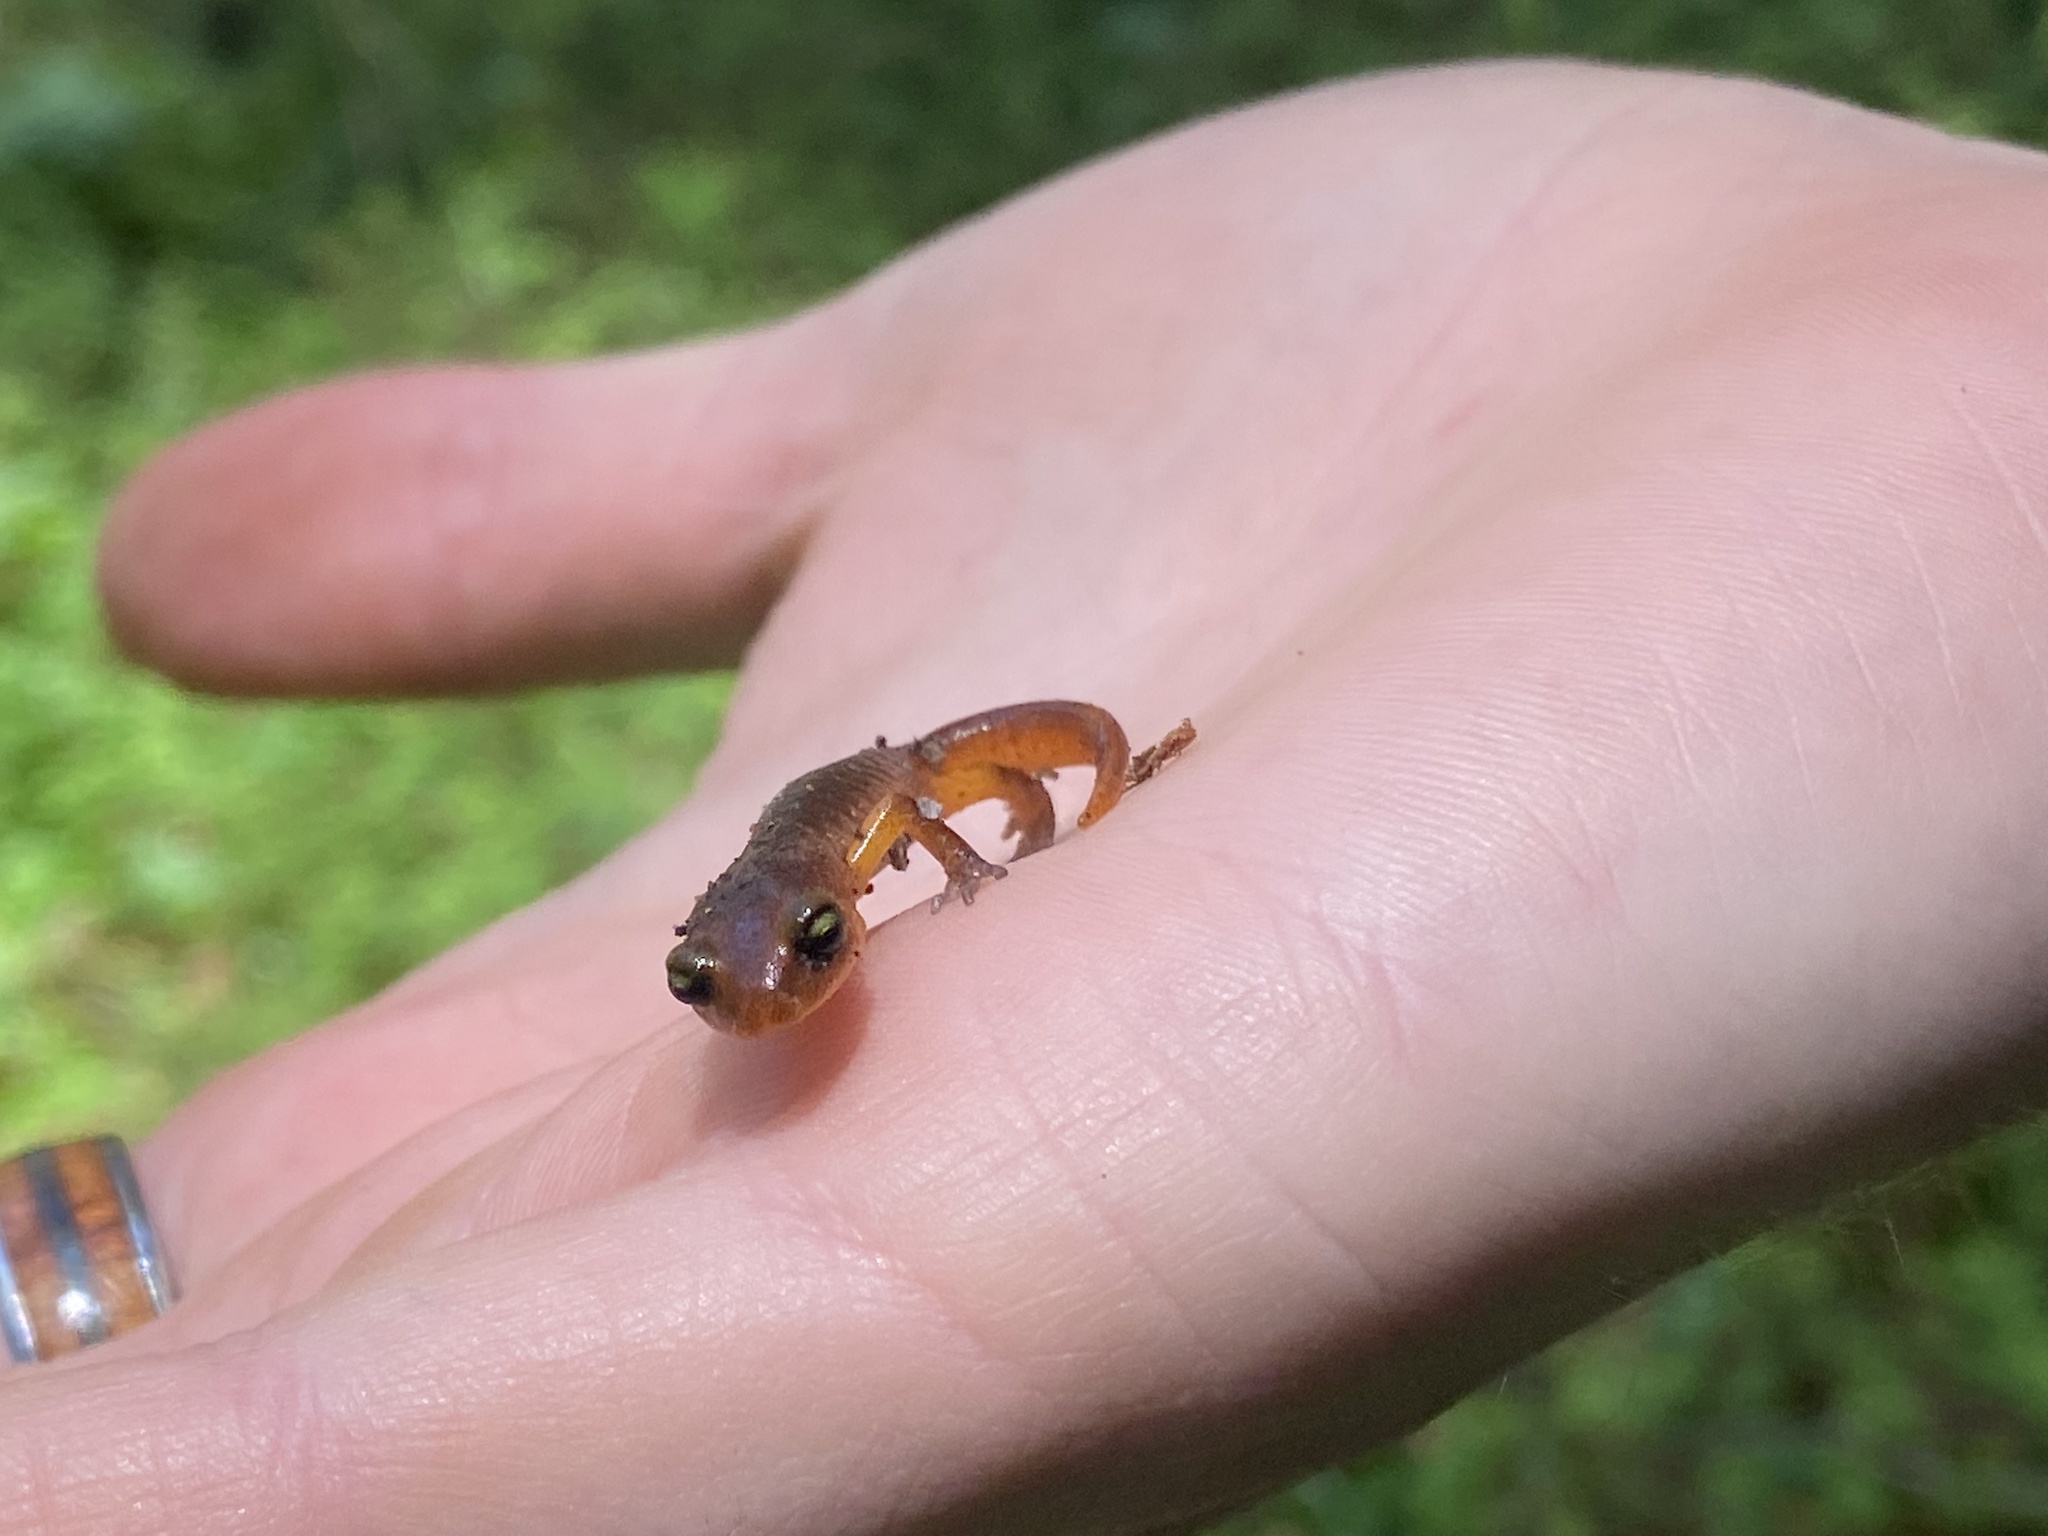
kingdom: Animalia
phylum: Chordata
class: Amphibia
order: Caudata
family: Plethodontidae
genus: Ensatina
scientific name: Ensatina eschscholtzii
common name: Ensatina
